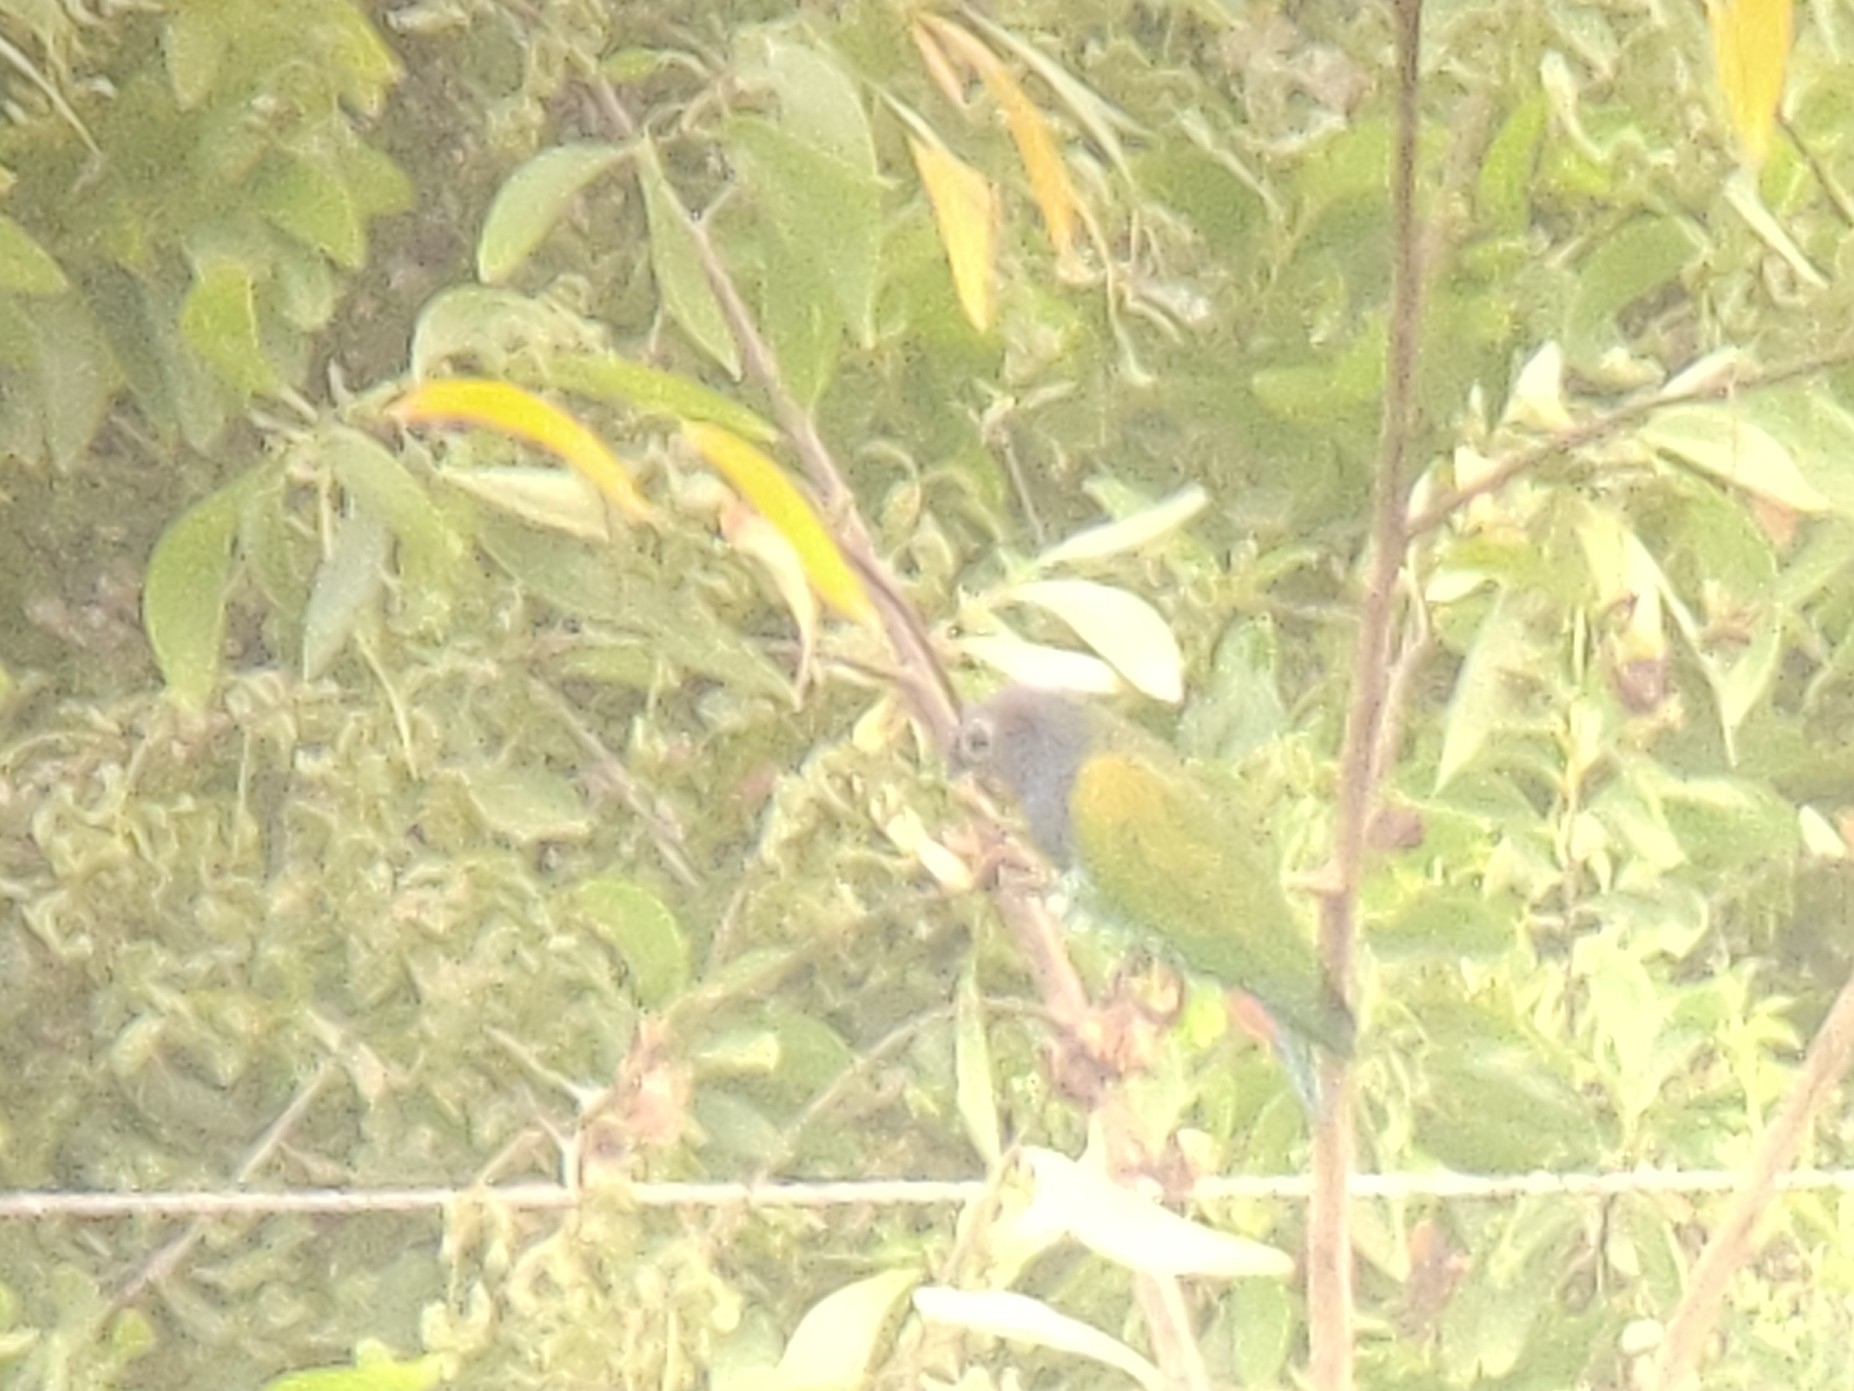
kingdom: Animalia
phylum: Chordata
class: Aves
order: Psittaciformes
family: Psittacidae
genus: Pionus
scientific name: Pionus menstruus
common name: Blue-headed parrot
